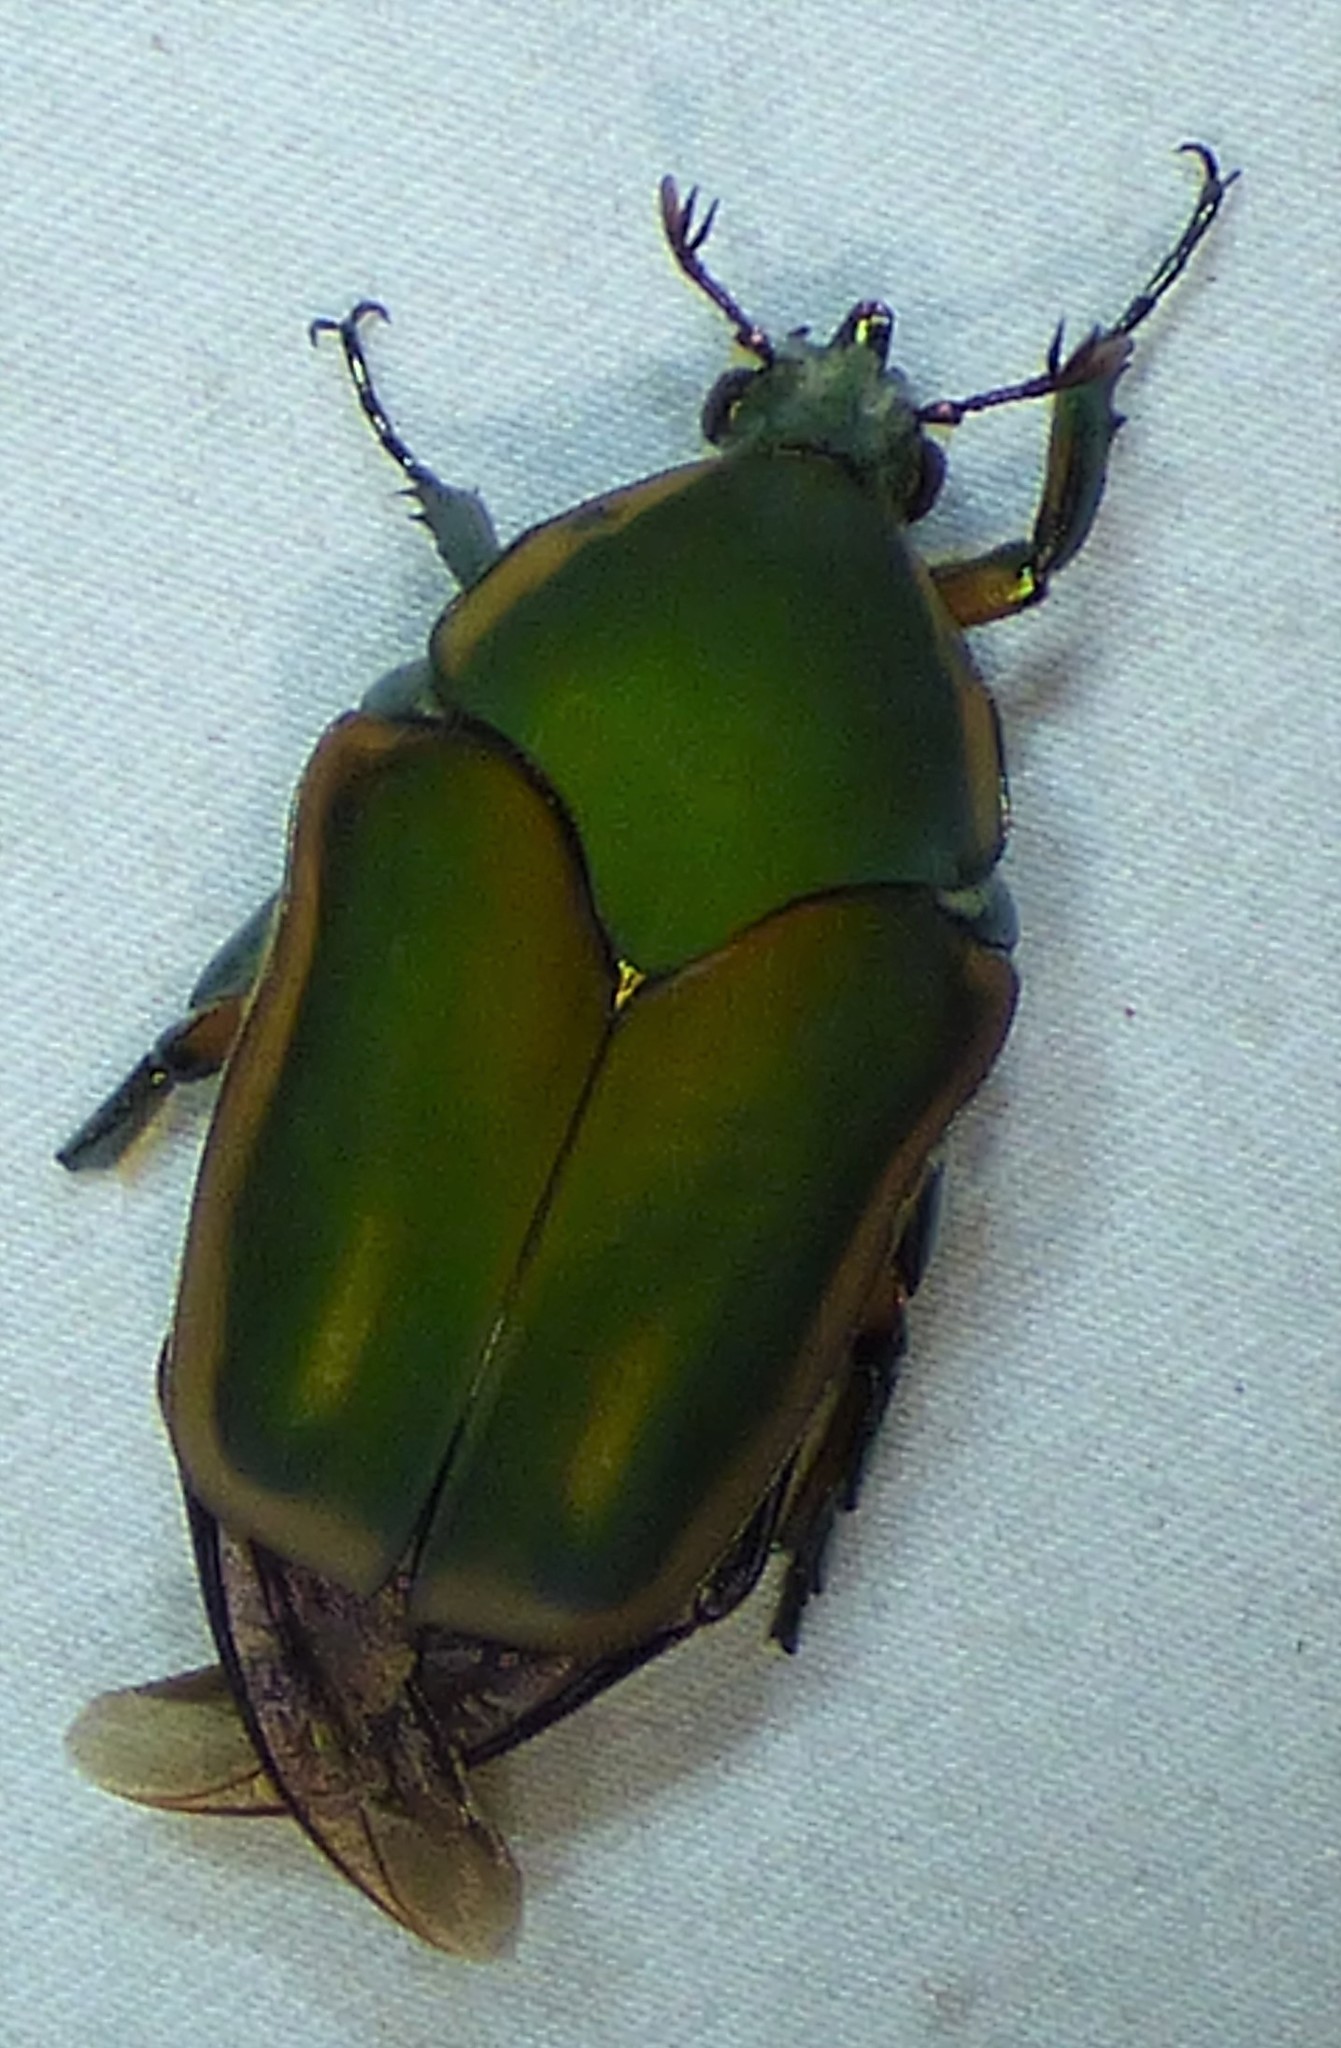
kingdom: Animalia
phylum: Arthropoda
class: Insecta
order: Coleoptera
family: Scarabaeidae
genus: Cotinis
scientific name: Cotinis nitida
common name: Common green june beetle
